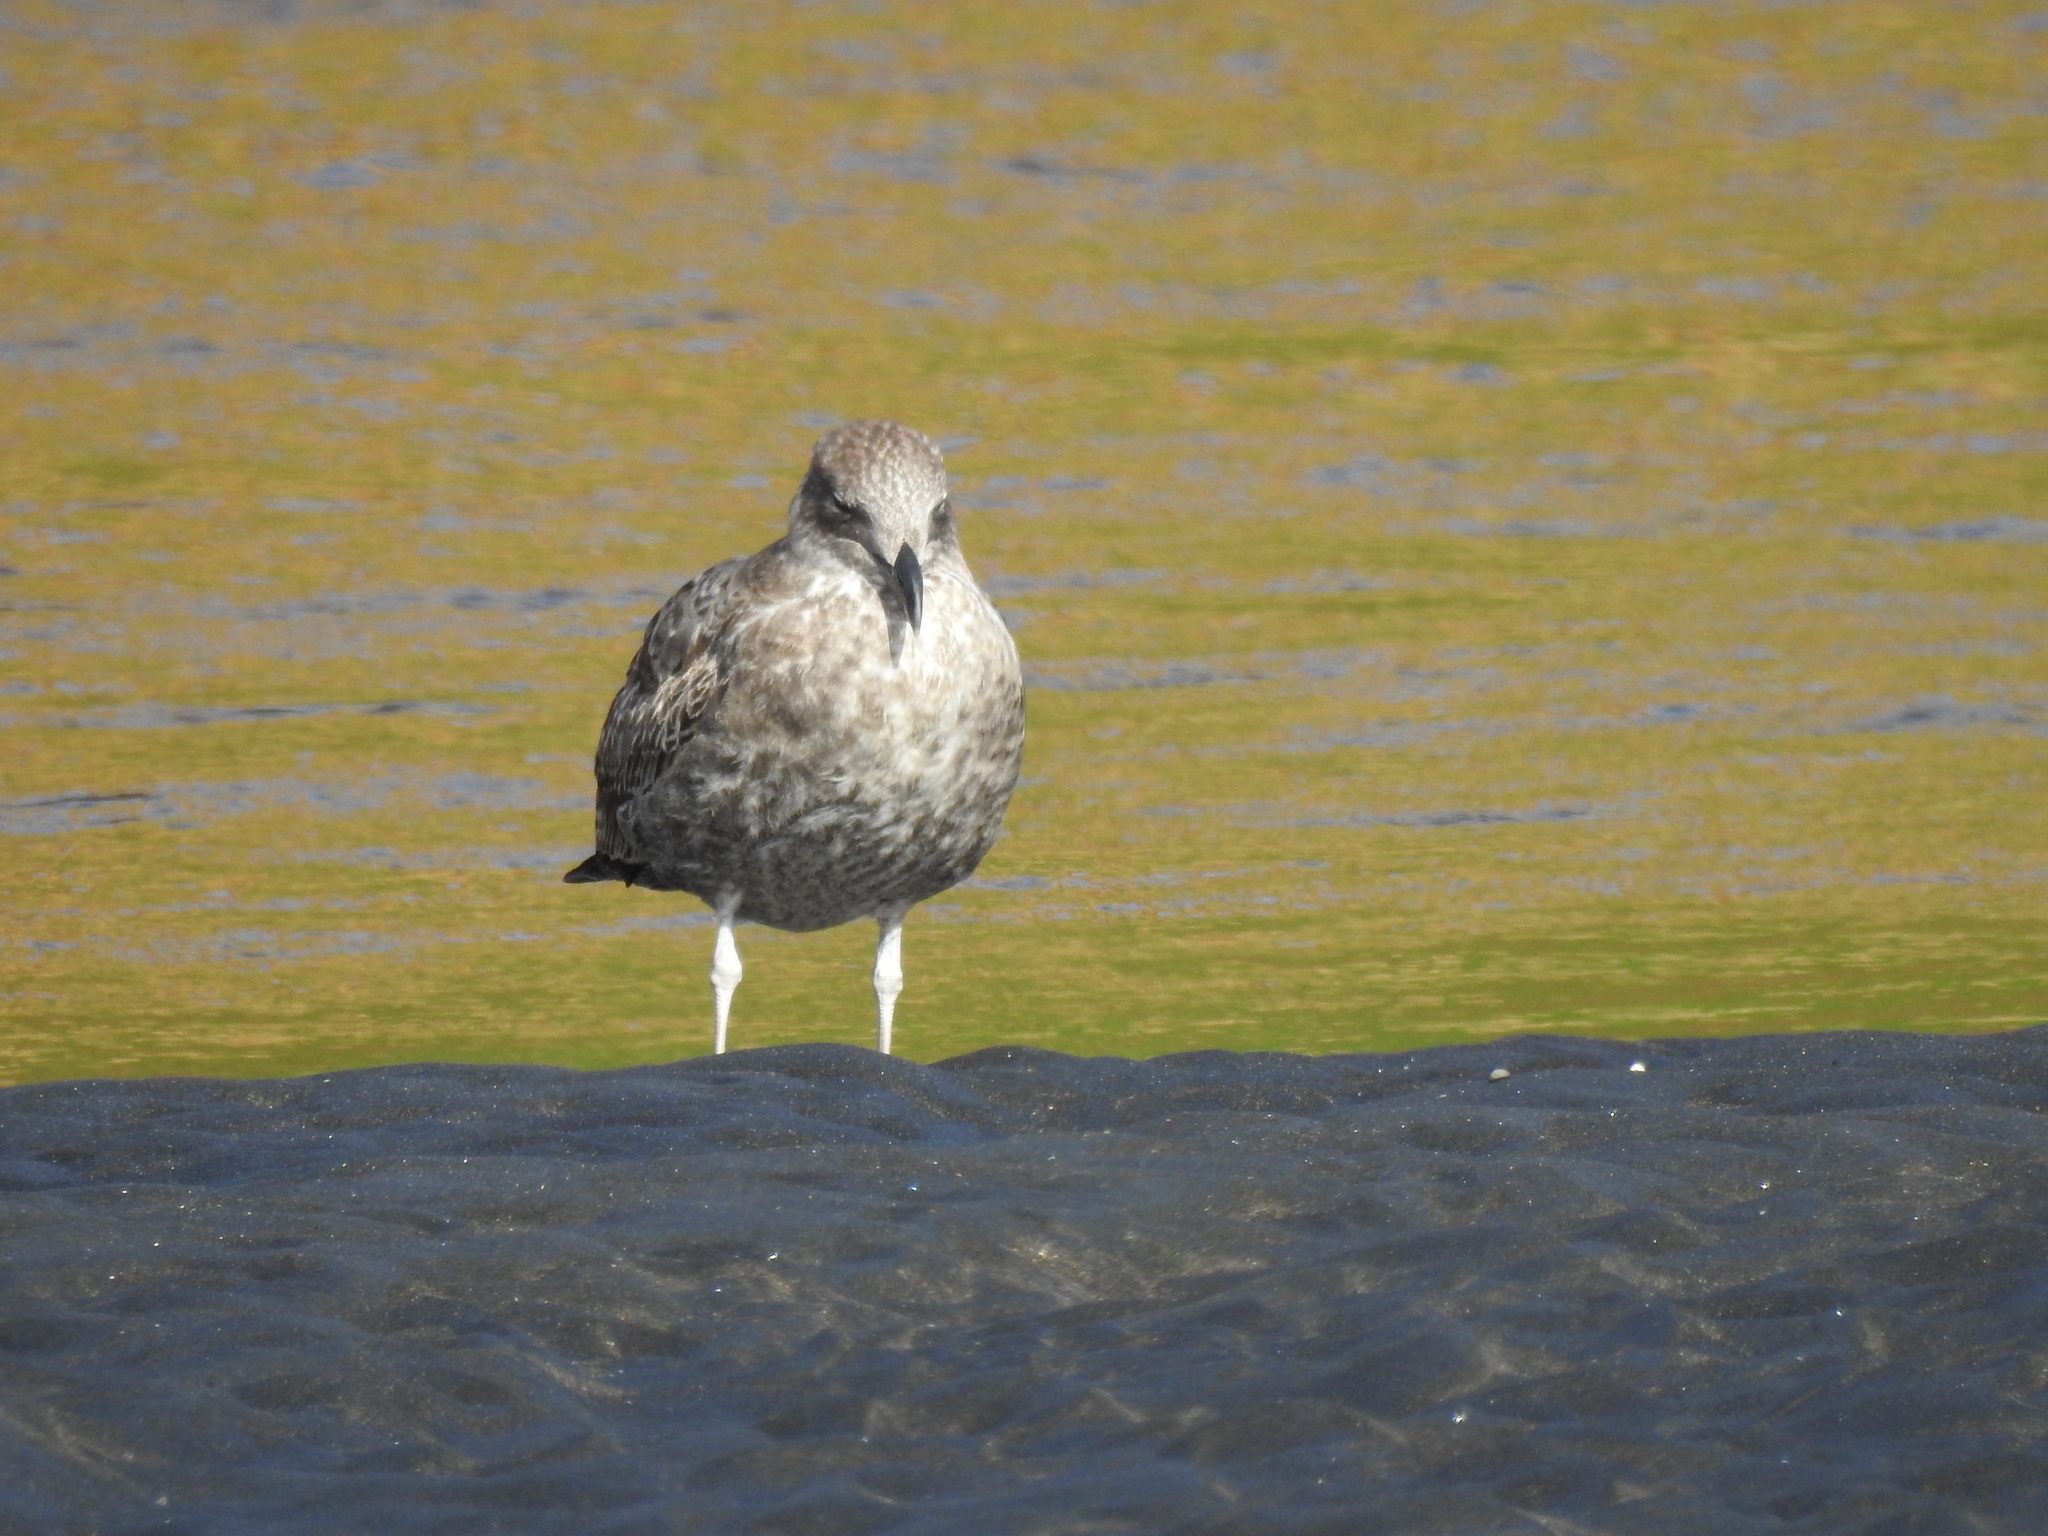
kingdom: Animalia
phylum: Chordata
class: Aves
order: Charadriiformes
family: Laridae
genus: Larus
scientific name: Larus dominicanus
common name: Kelp gull
